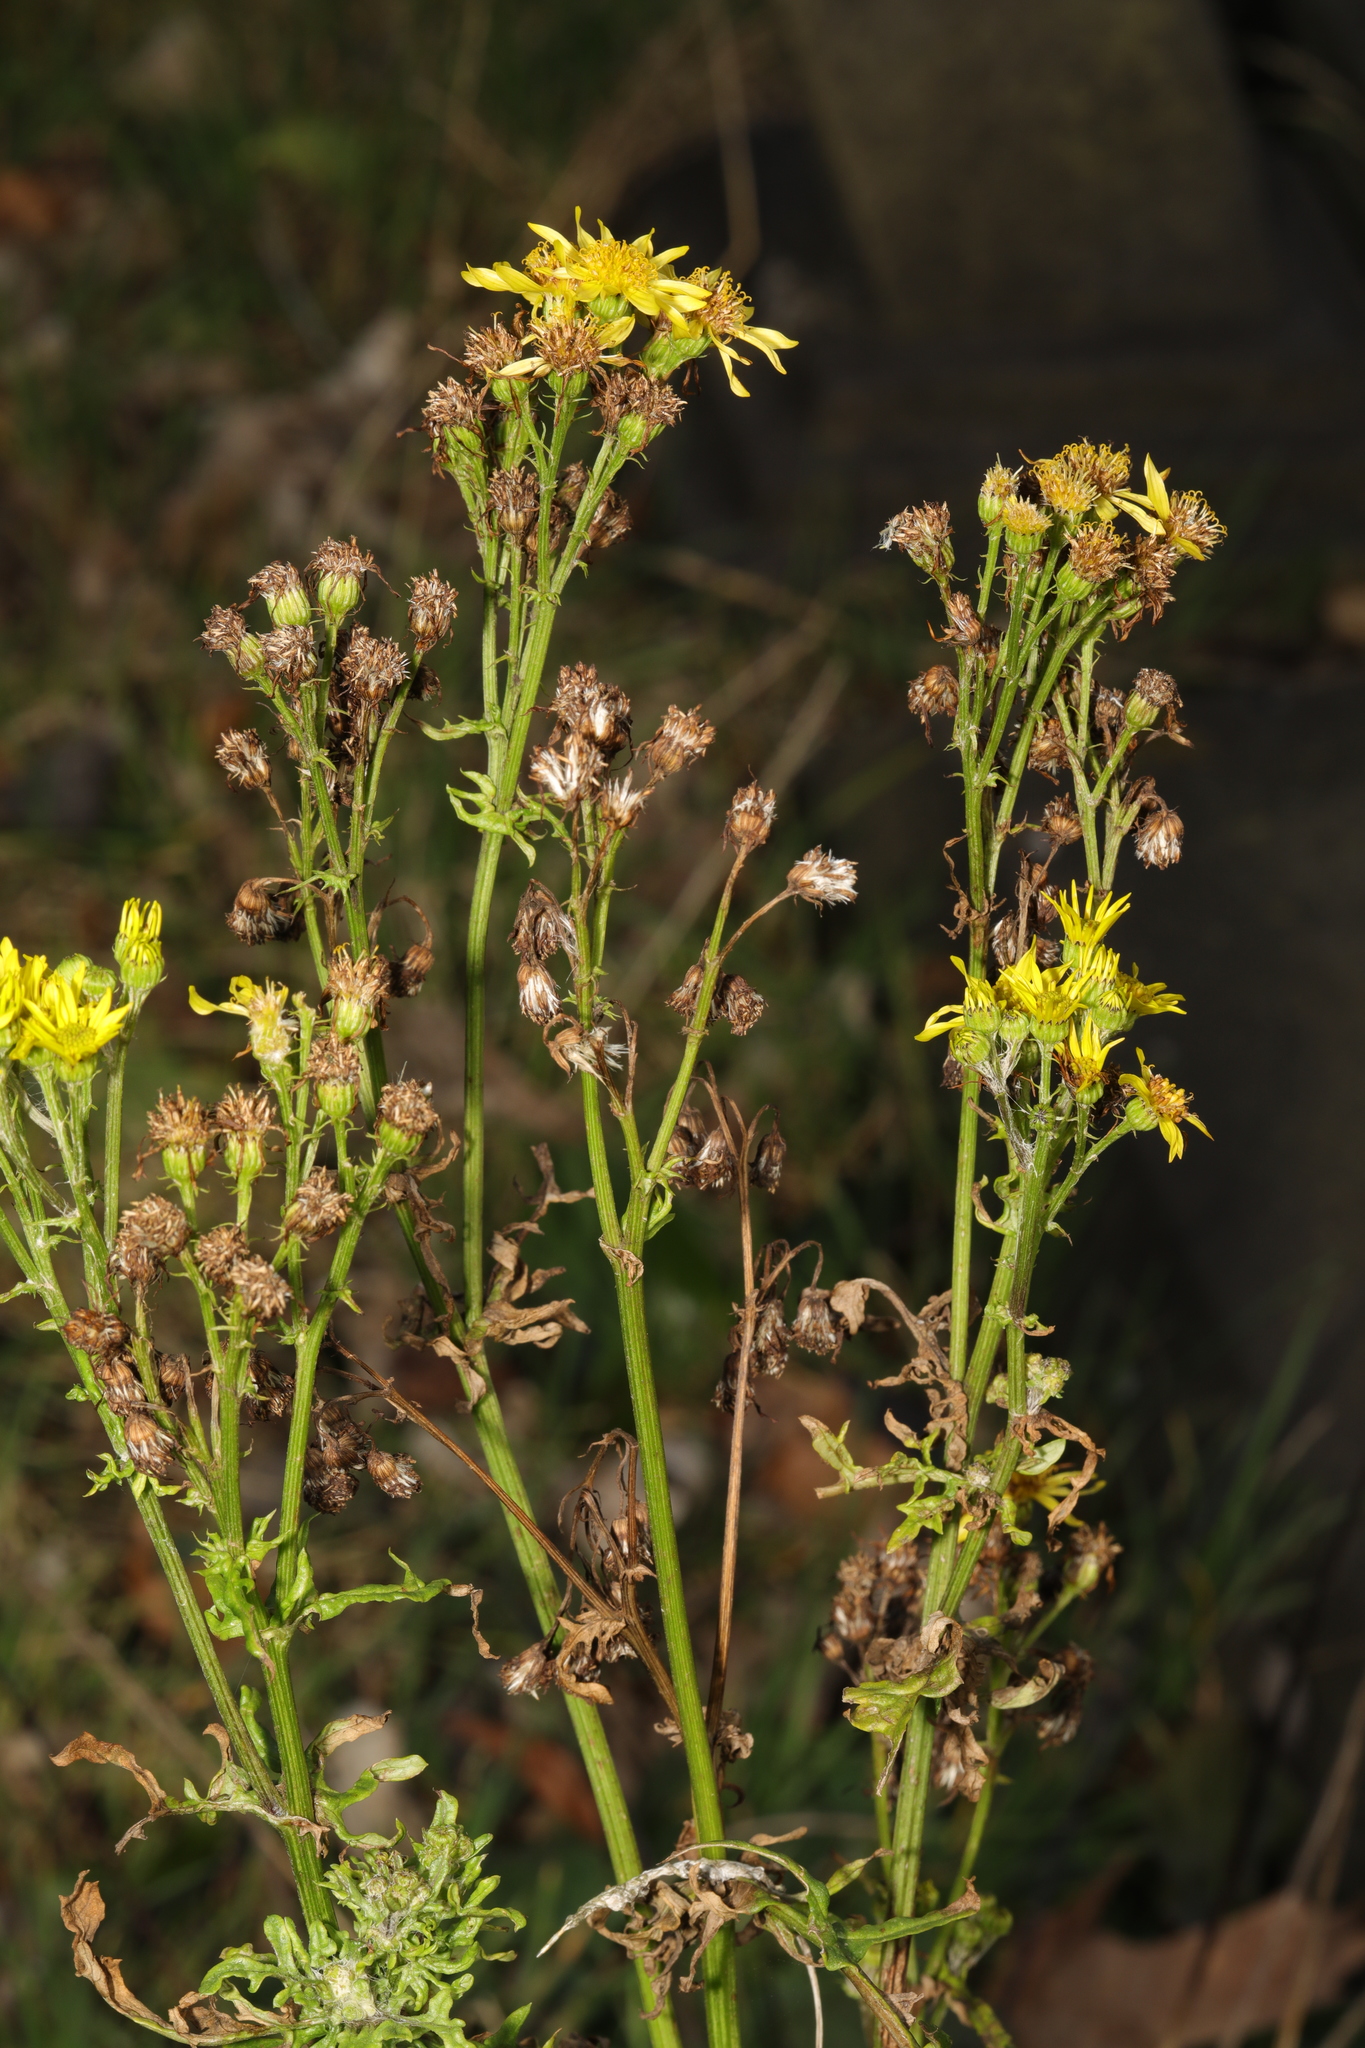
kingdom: Plantae
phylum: Tracheophyta
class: Magnoliopsida
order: Asterales
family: Asteraceae
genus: Jacobaea
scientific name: Jacobaea vulgaris
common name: Stinking willie
